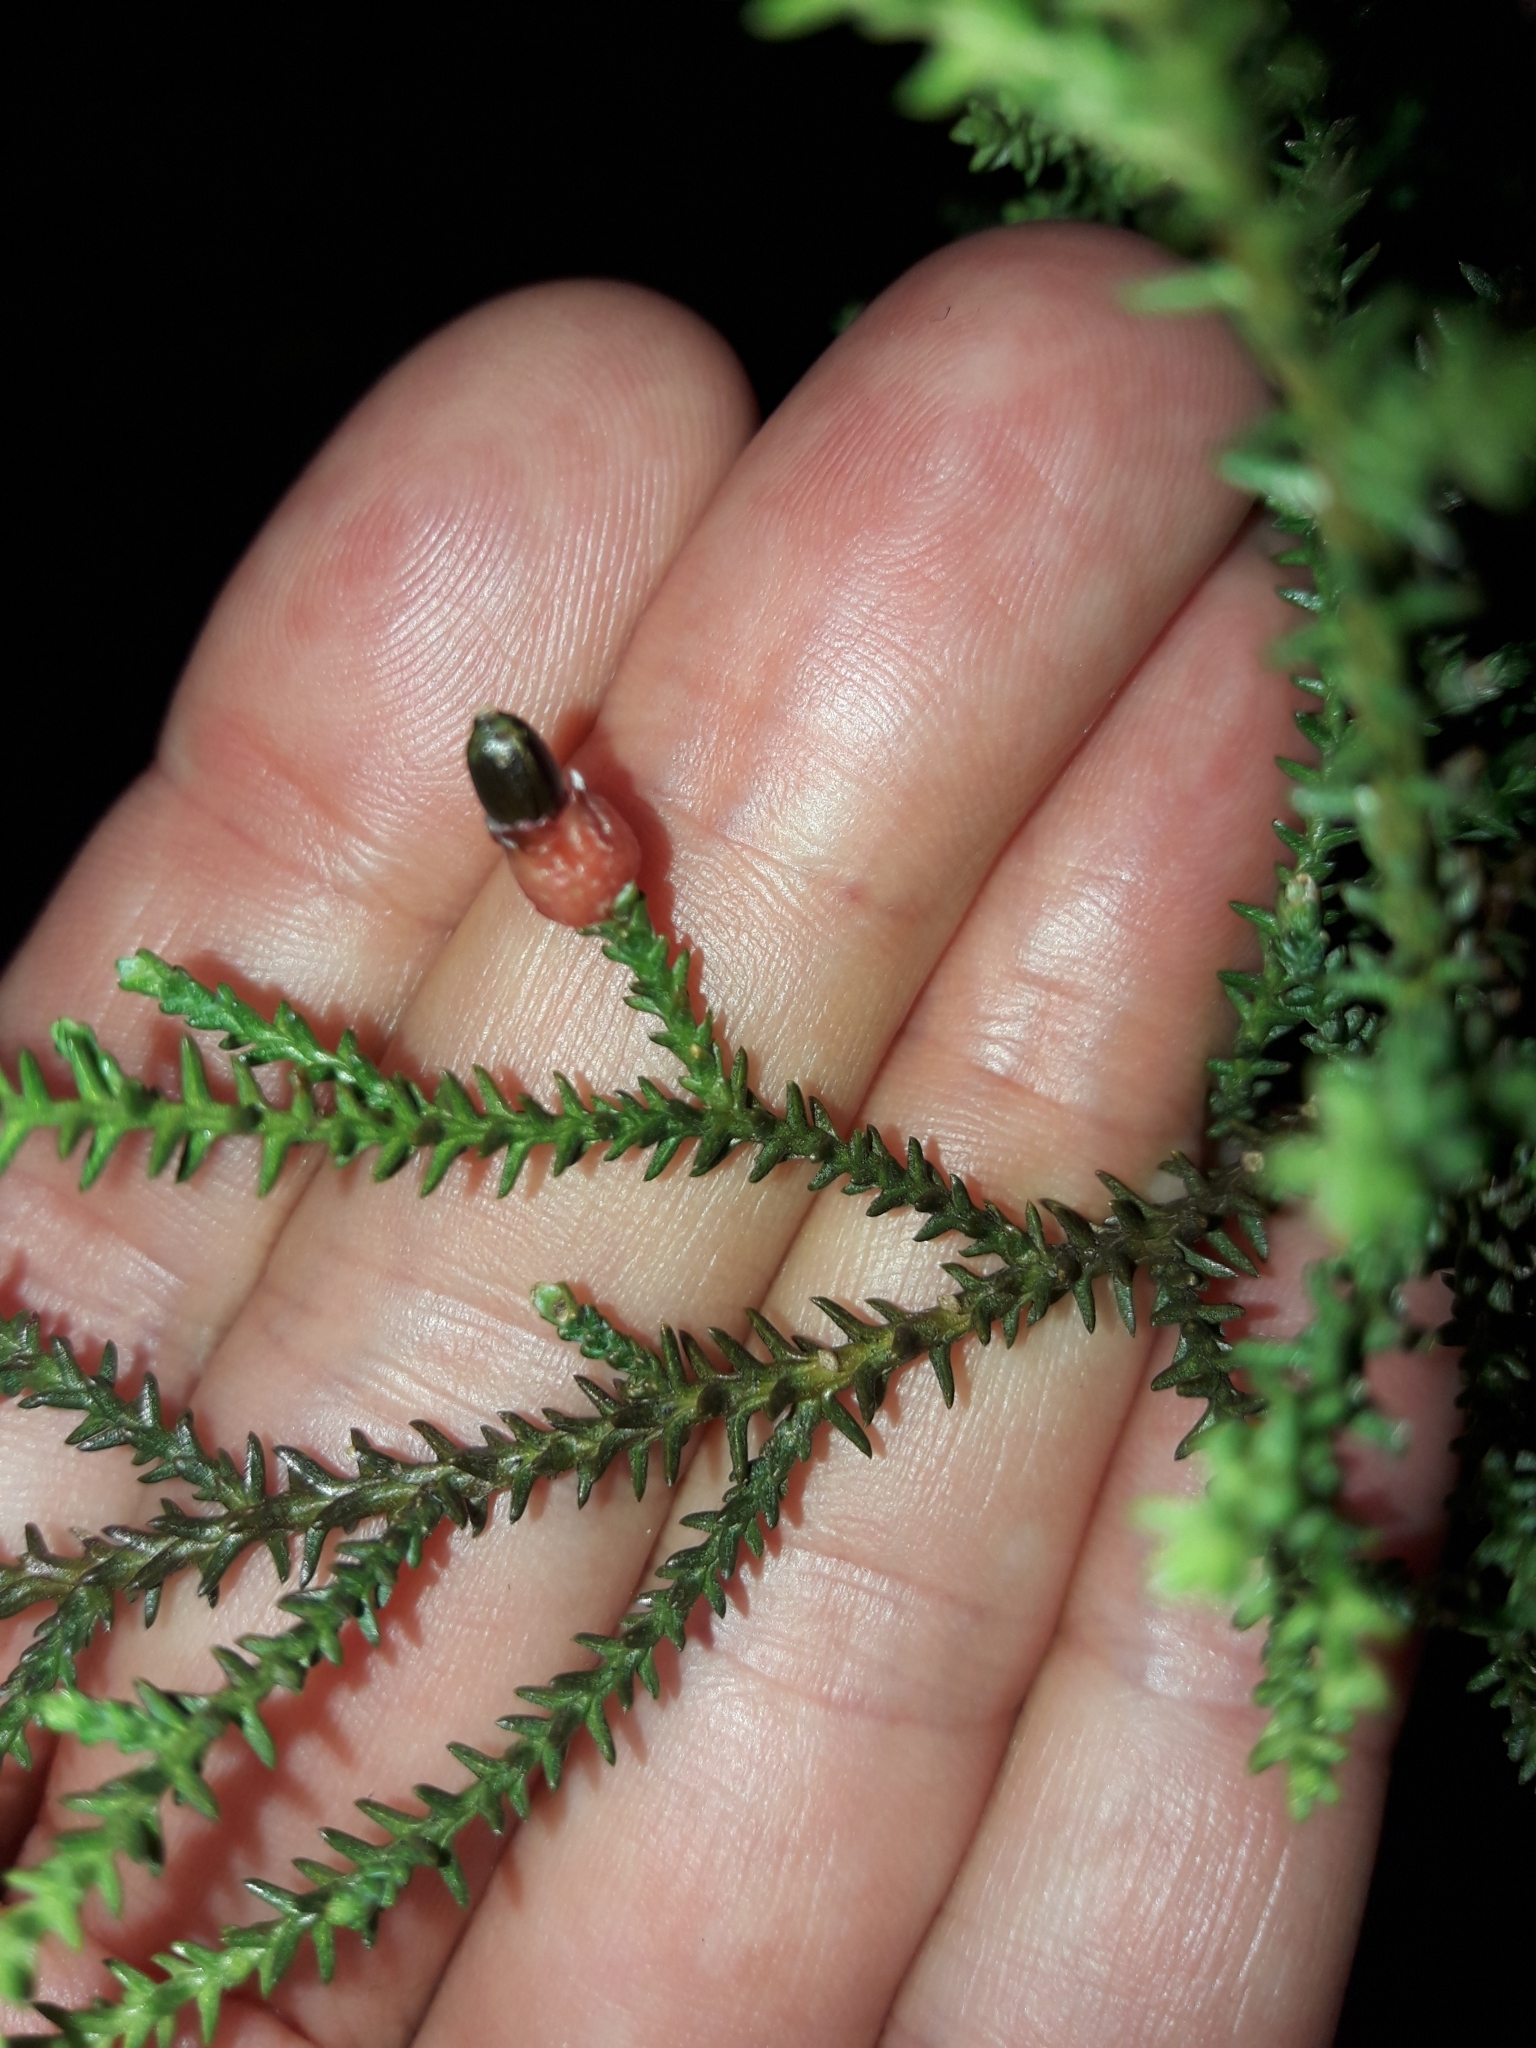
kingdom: Plantae
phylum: Tracheophyta
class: Pinopsida
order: Pinales
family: Podocarpaceae
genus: Lepidothamnus
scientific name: Lepidothamnus laxifolius
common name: Pygmy pine
